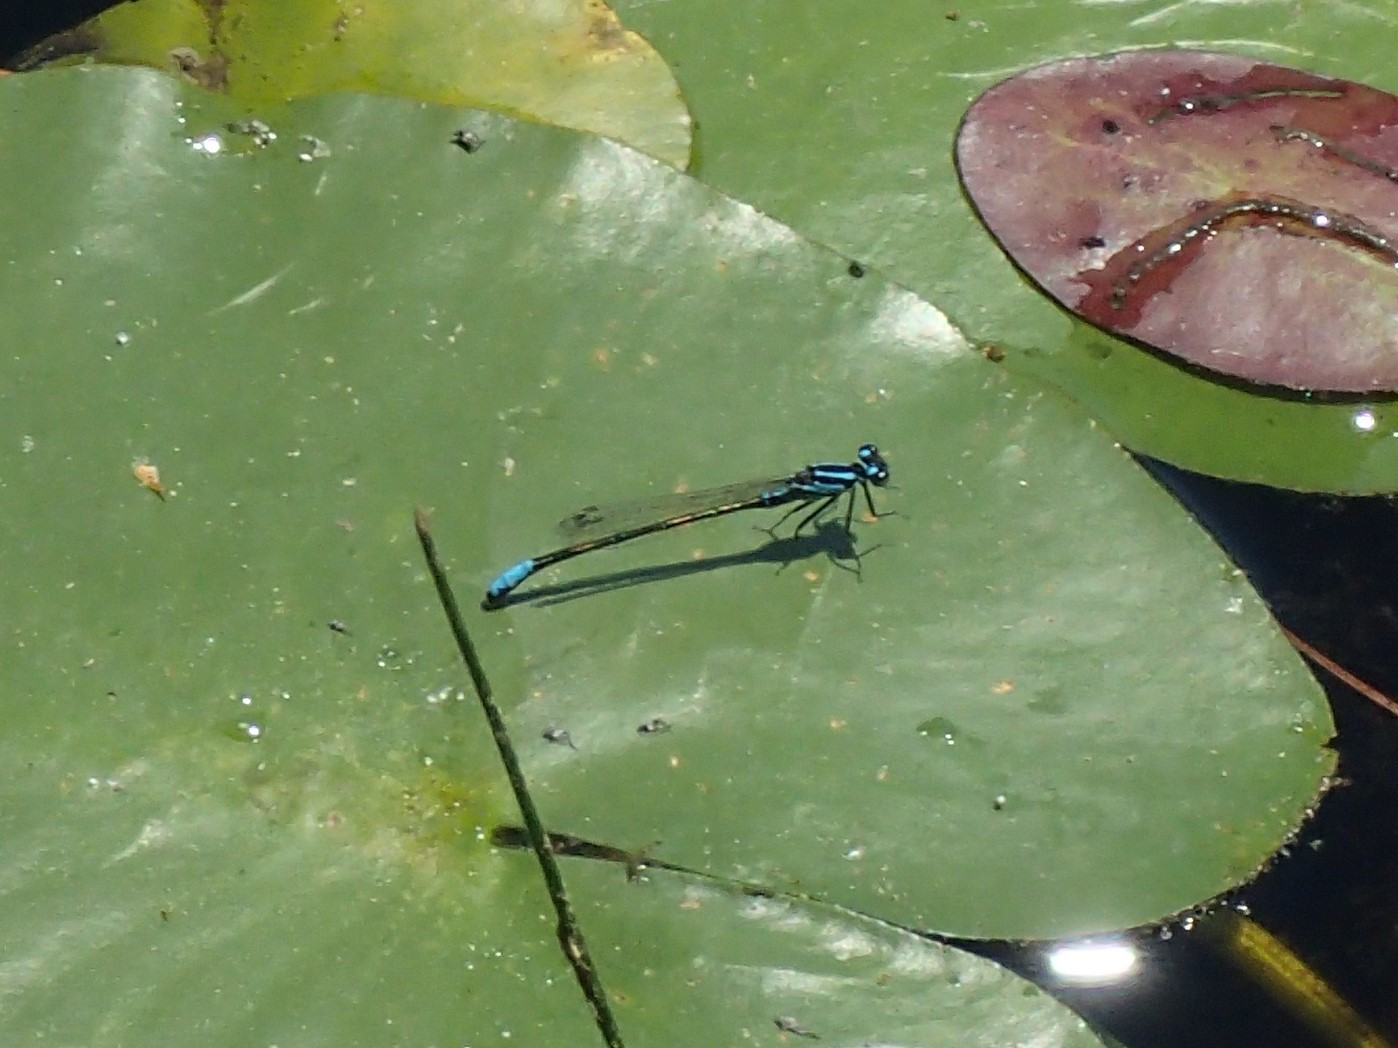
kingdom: Animalia
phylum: Arthropoda
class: Insecta
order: Odonata
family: Coenagrionidae
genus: Ischnura
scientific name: Ischnura kellicotti
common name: Lilypad forktail
